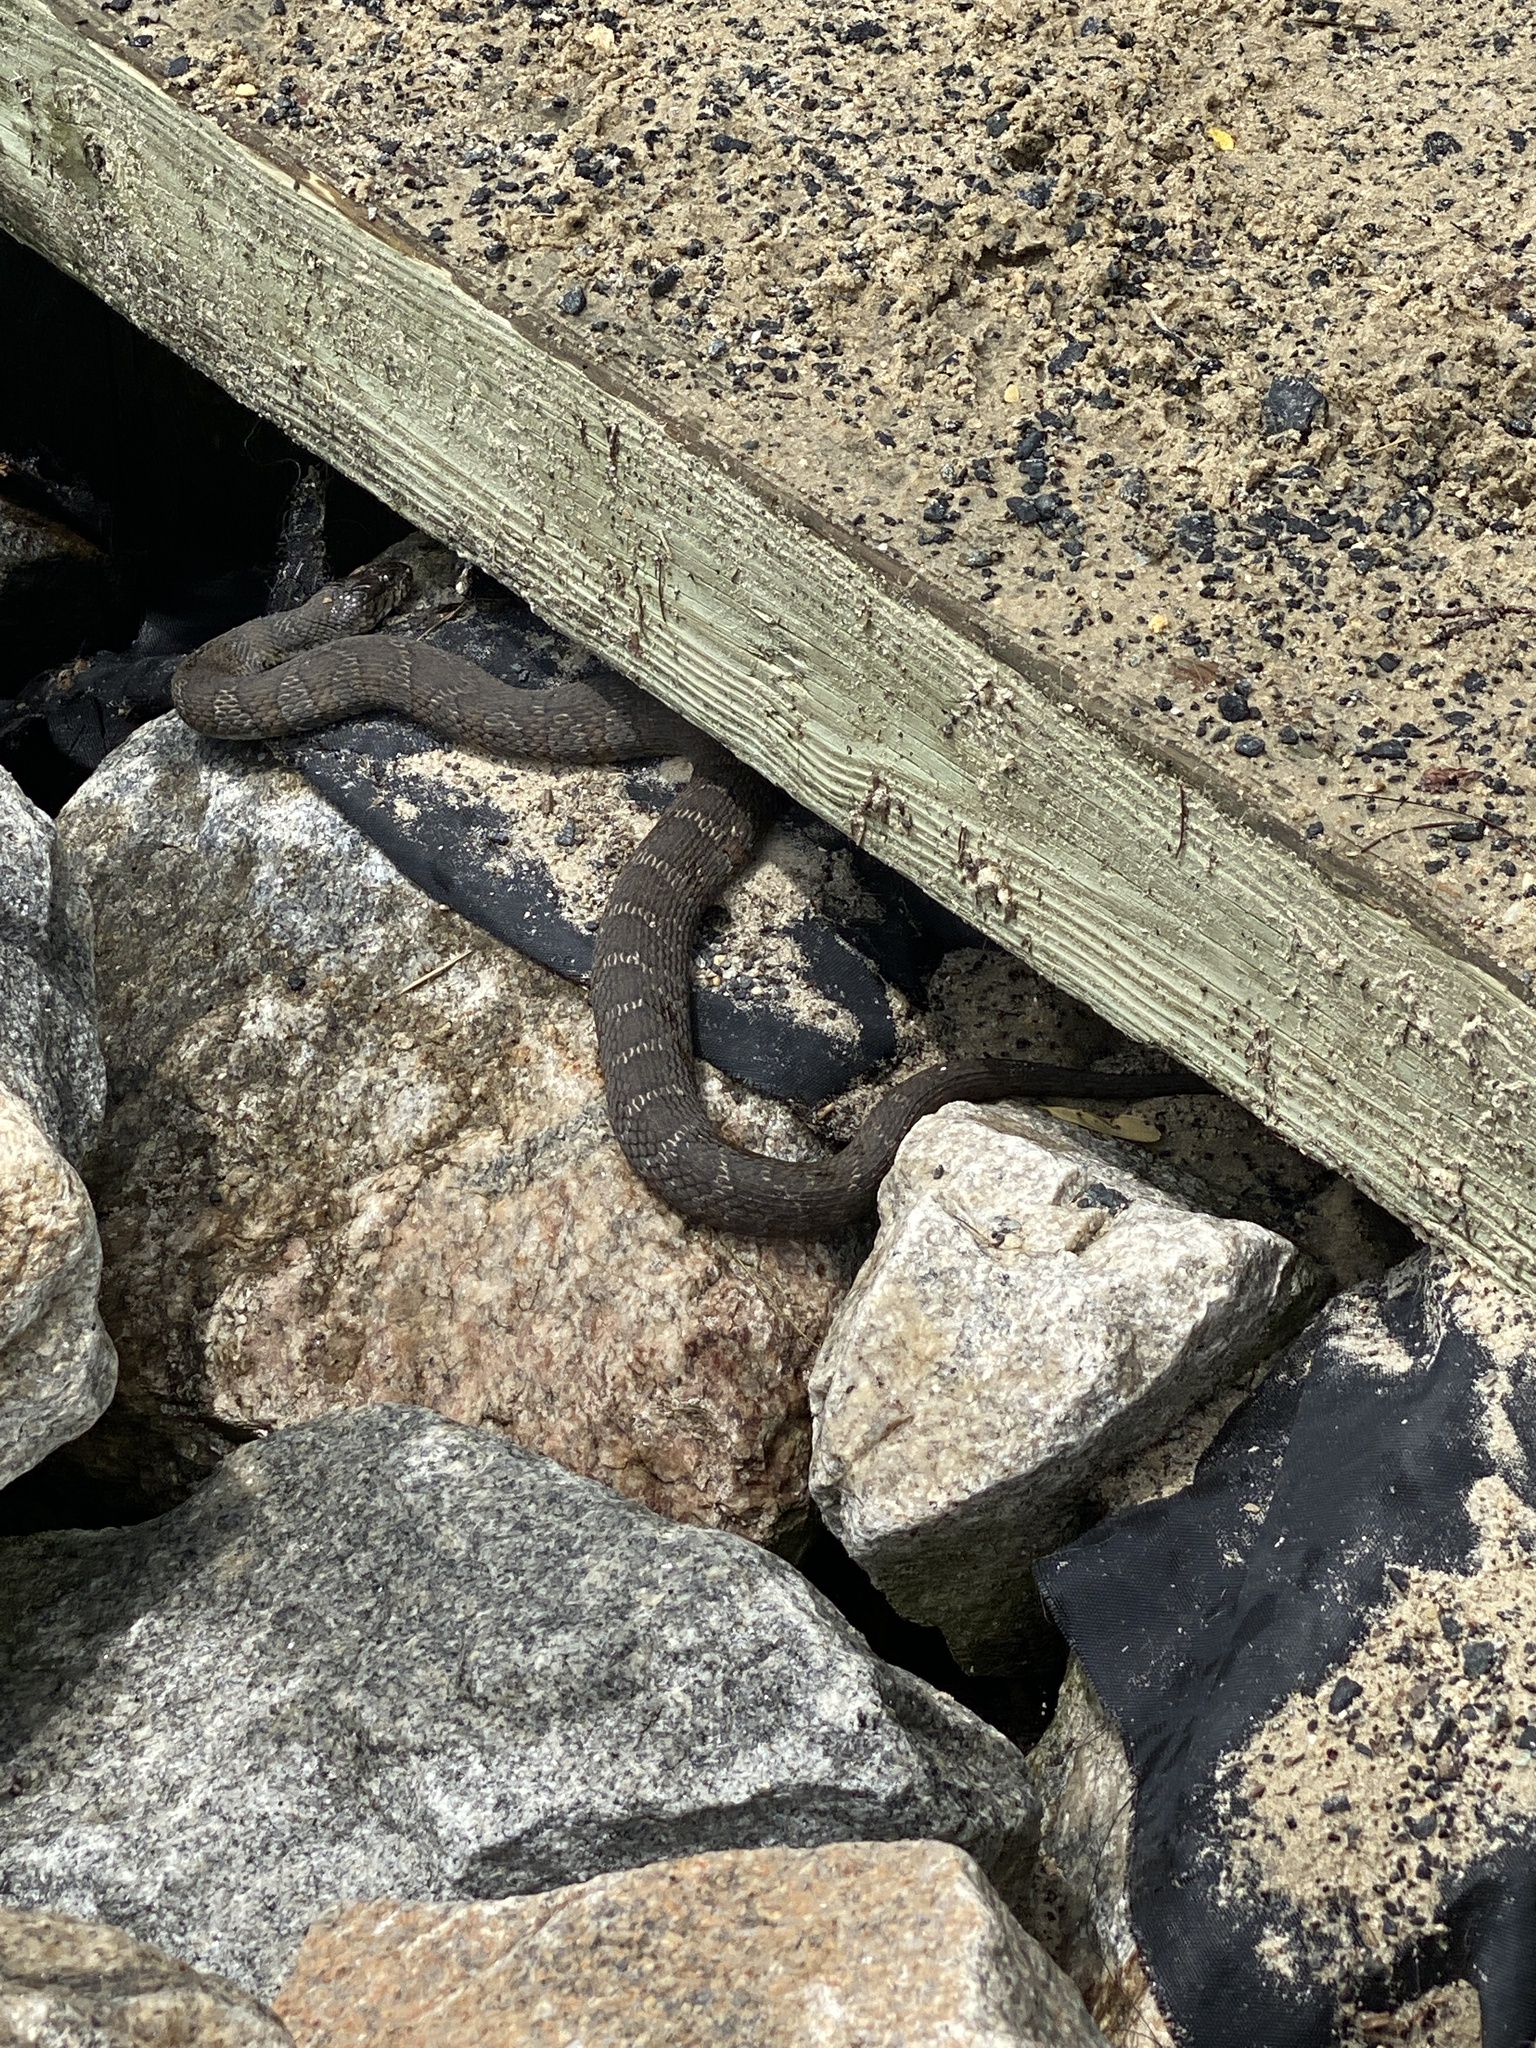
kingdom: Animalia
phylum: Chordata
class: Squamata
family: Colubridae
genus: Nerodia
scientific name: Nerodia sipedon
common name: Northern water snake
